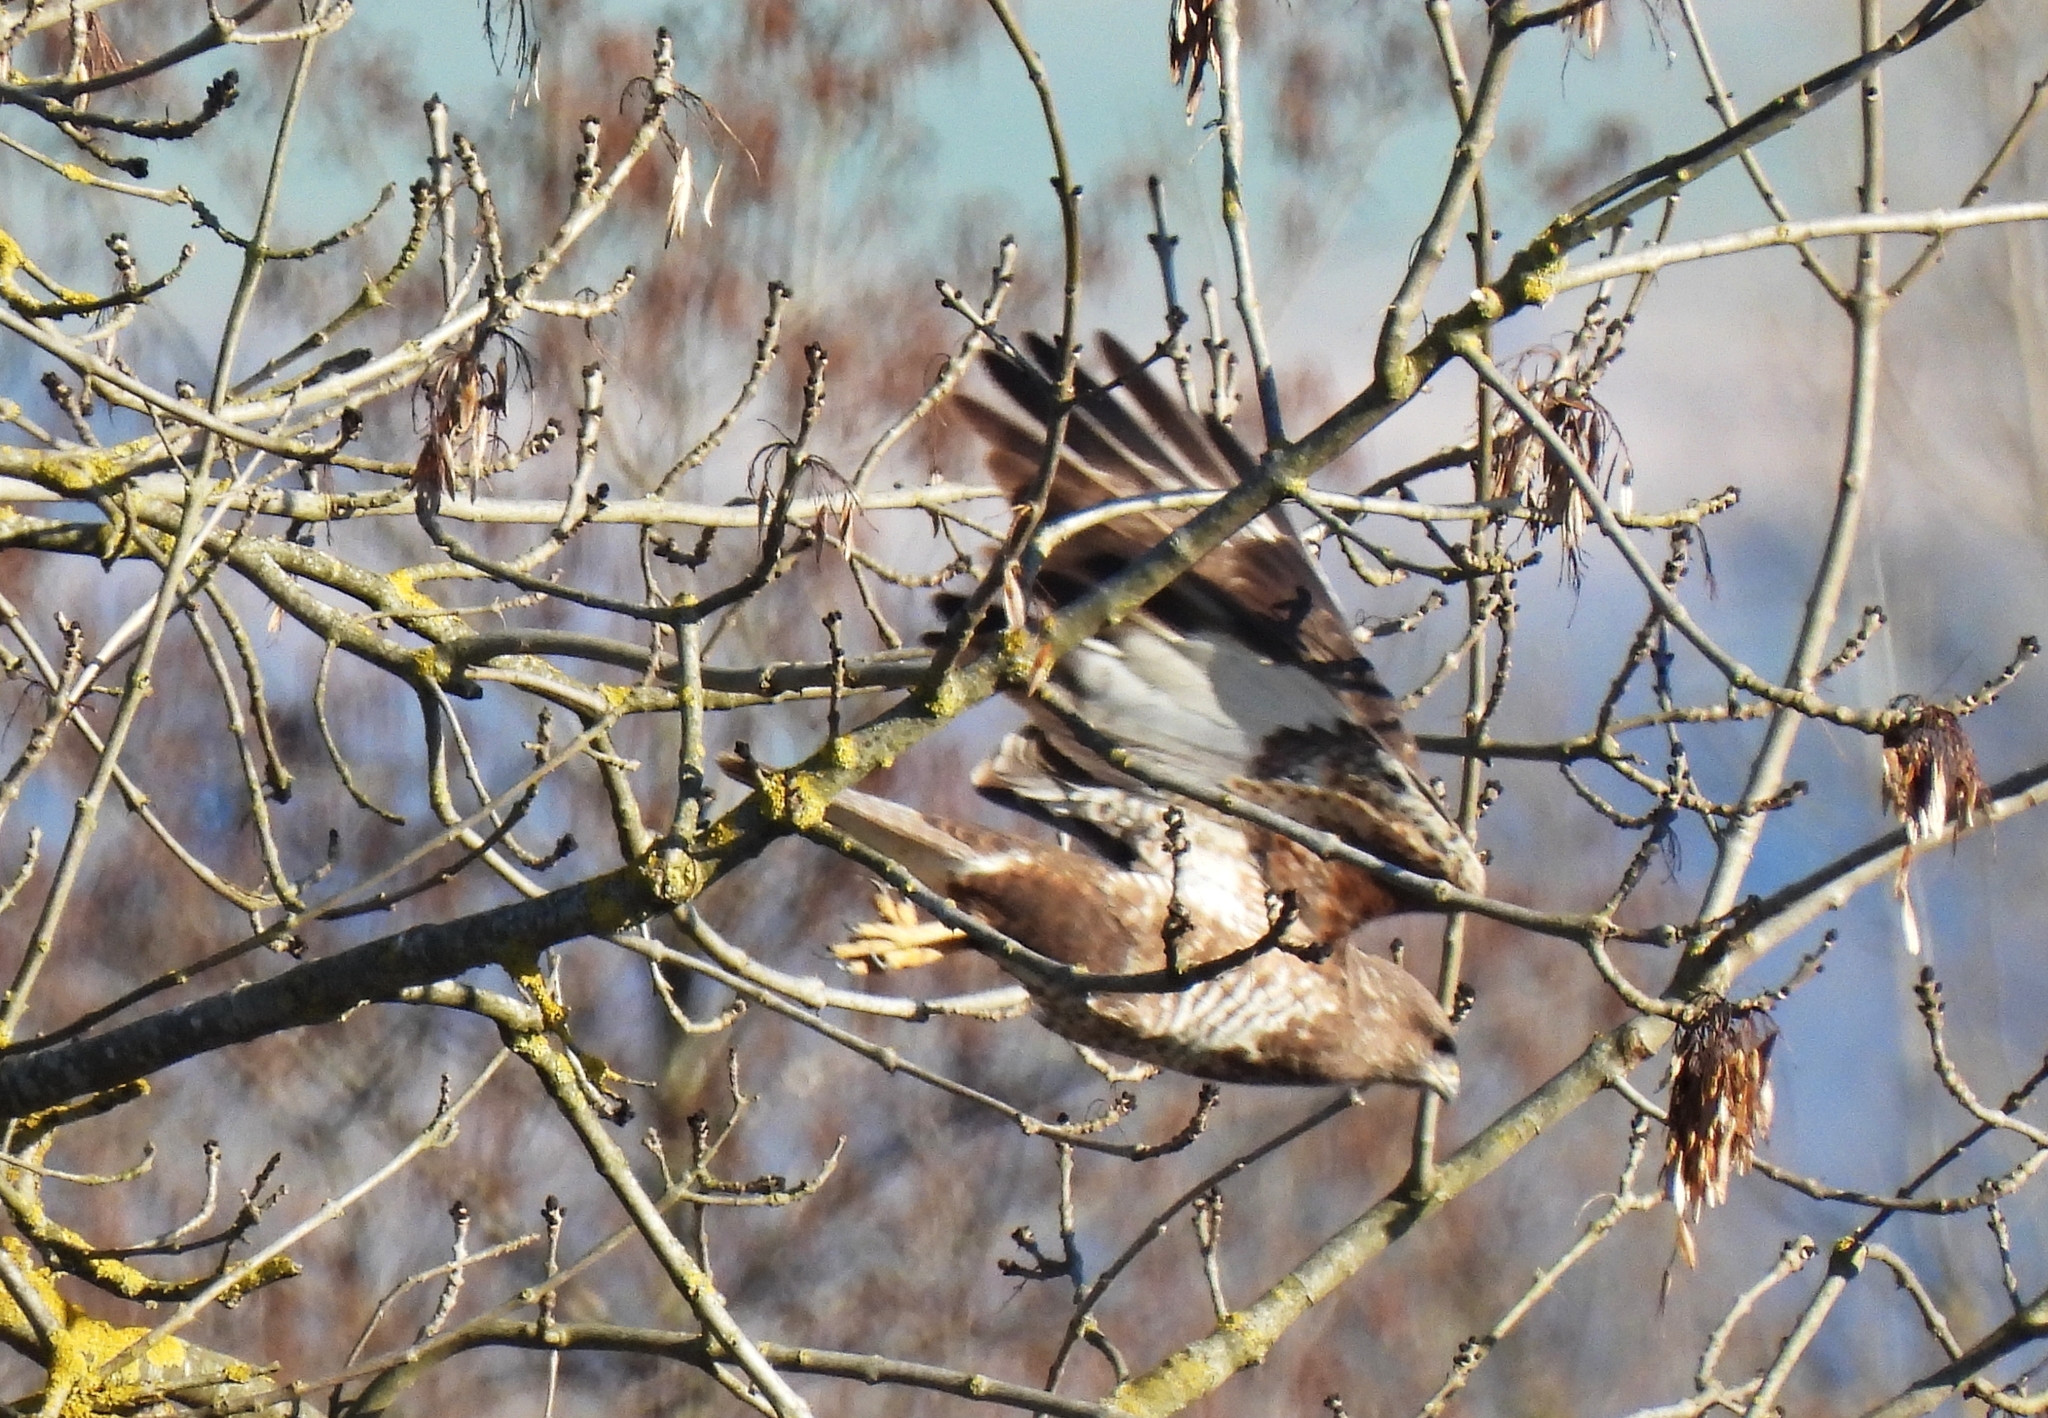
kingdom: Animalia
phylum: Chordata
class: Aves
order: Accipitriformes
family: Accipitridae
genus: Buteo
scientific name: Buteo buteo
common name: Common buzzard
